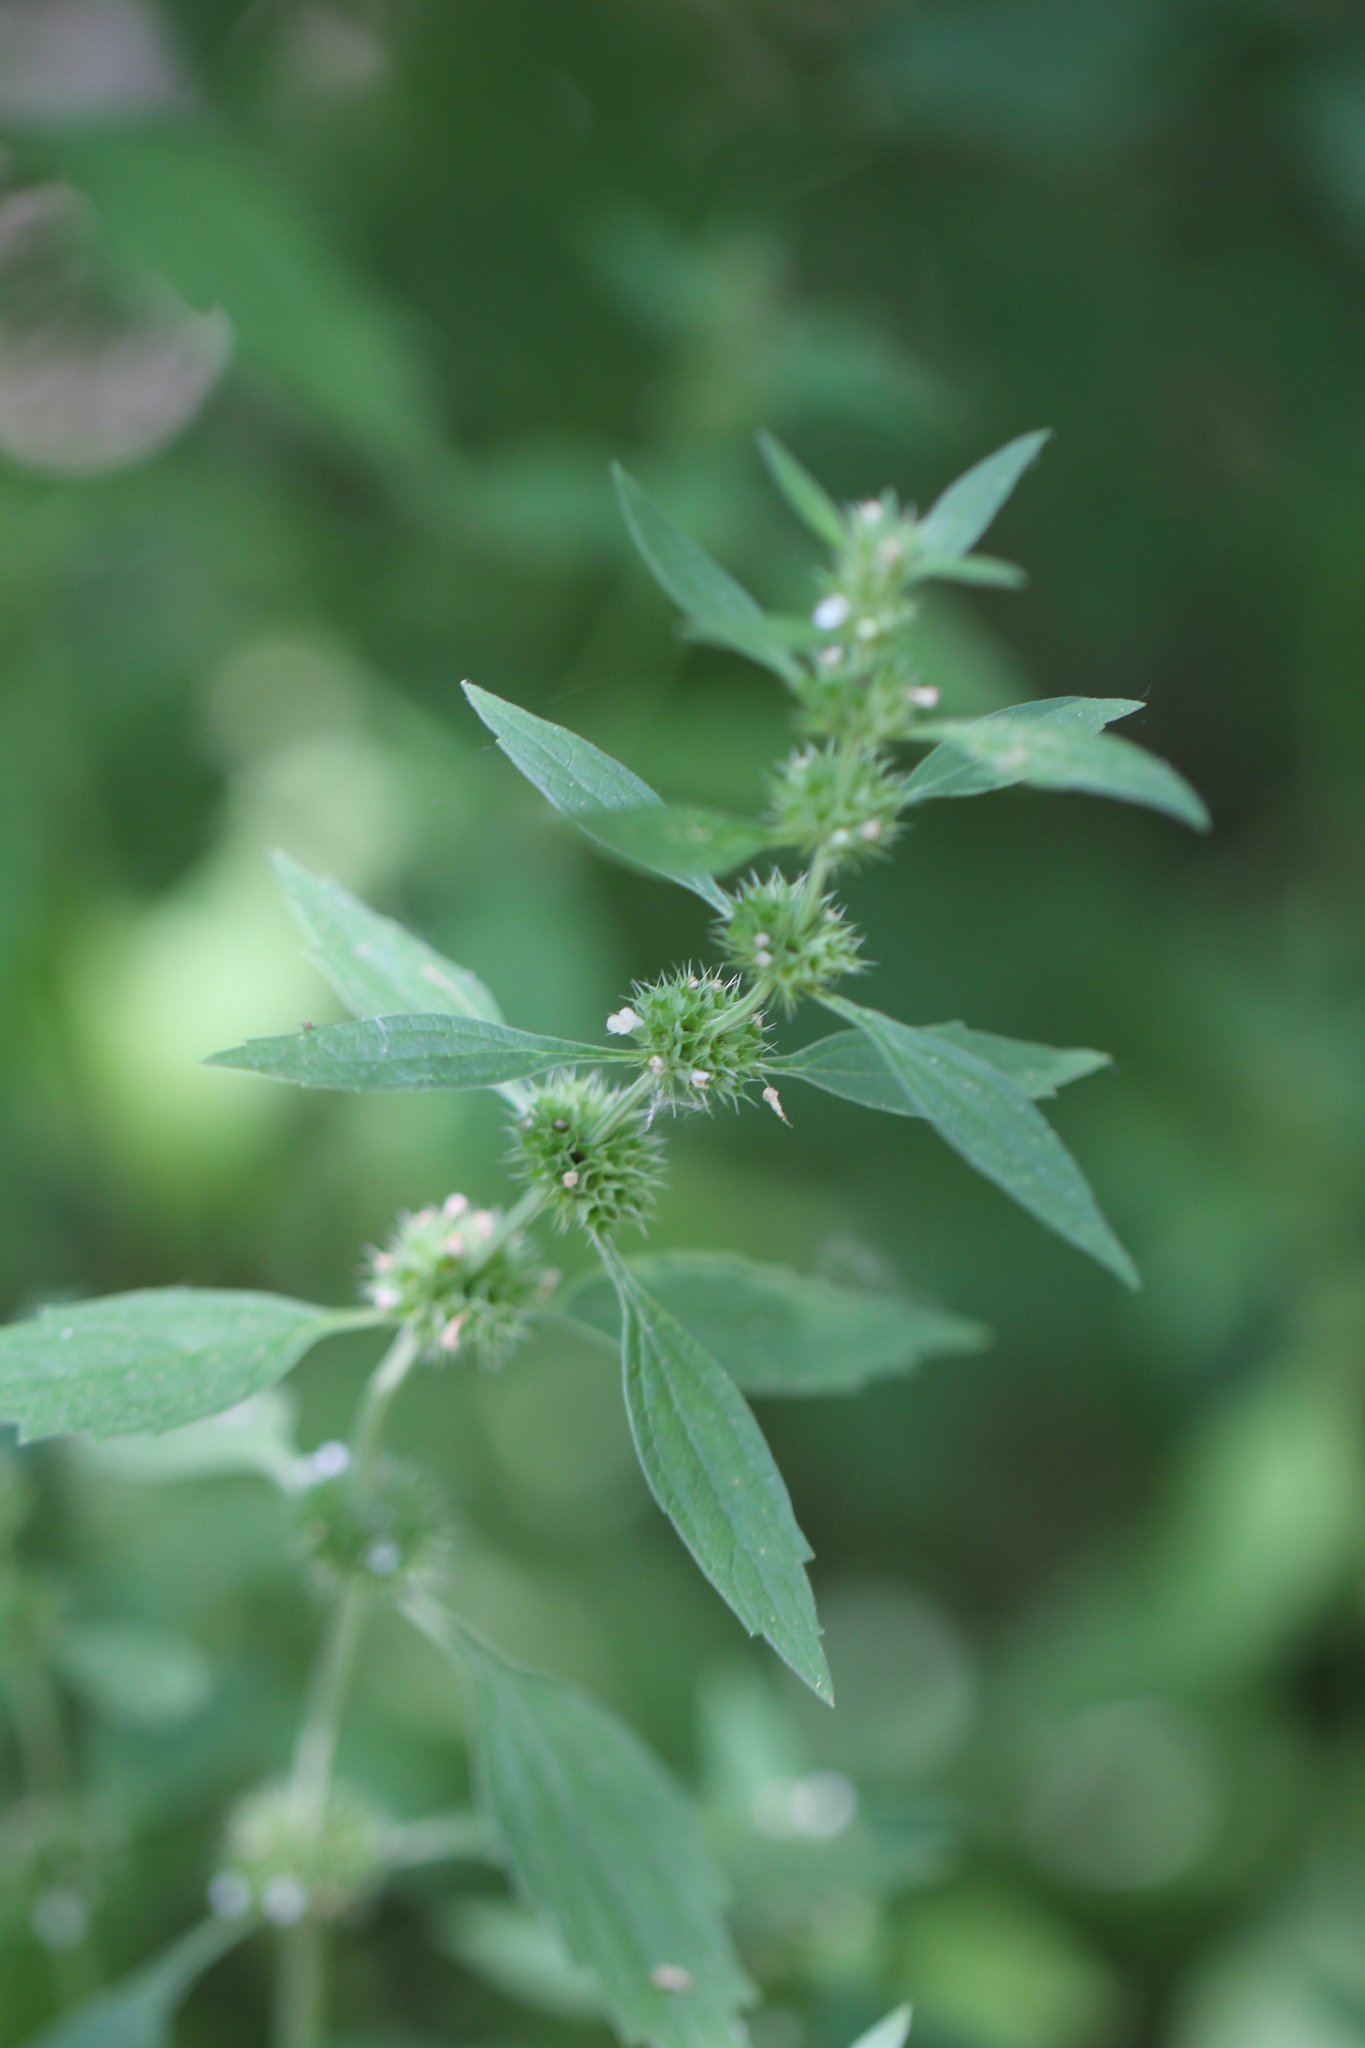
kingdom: Plantae
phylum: Tracheophyta
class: Magnoliopsida
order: Lamiales
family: Lamiaceae
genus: Chaiturus
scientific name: Chaiturus marrubiastrum
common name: Lion's tail
